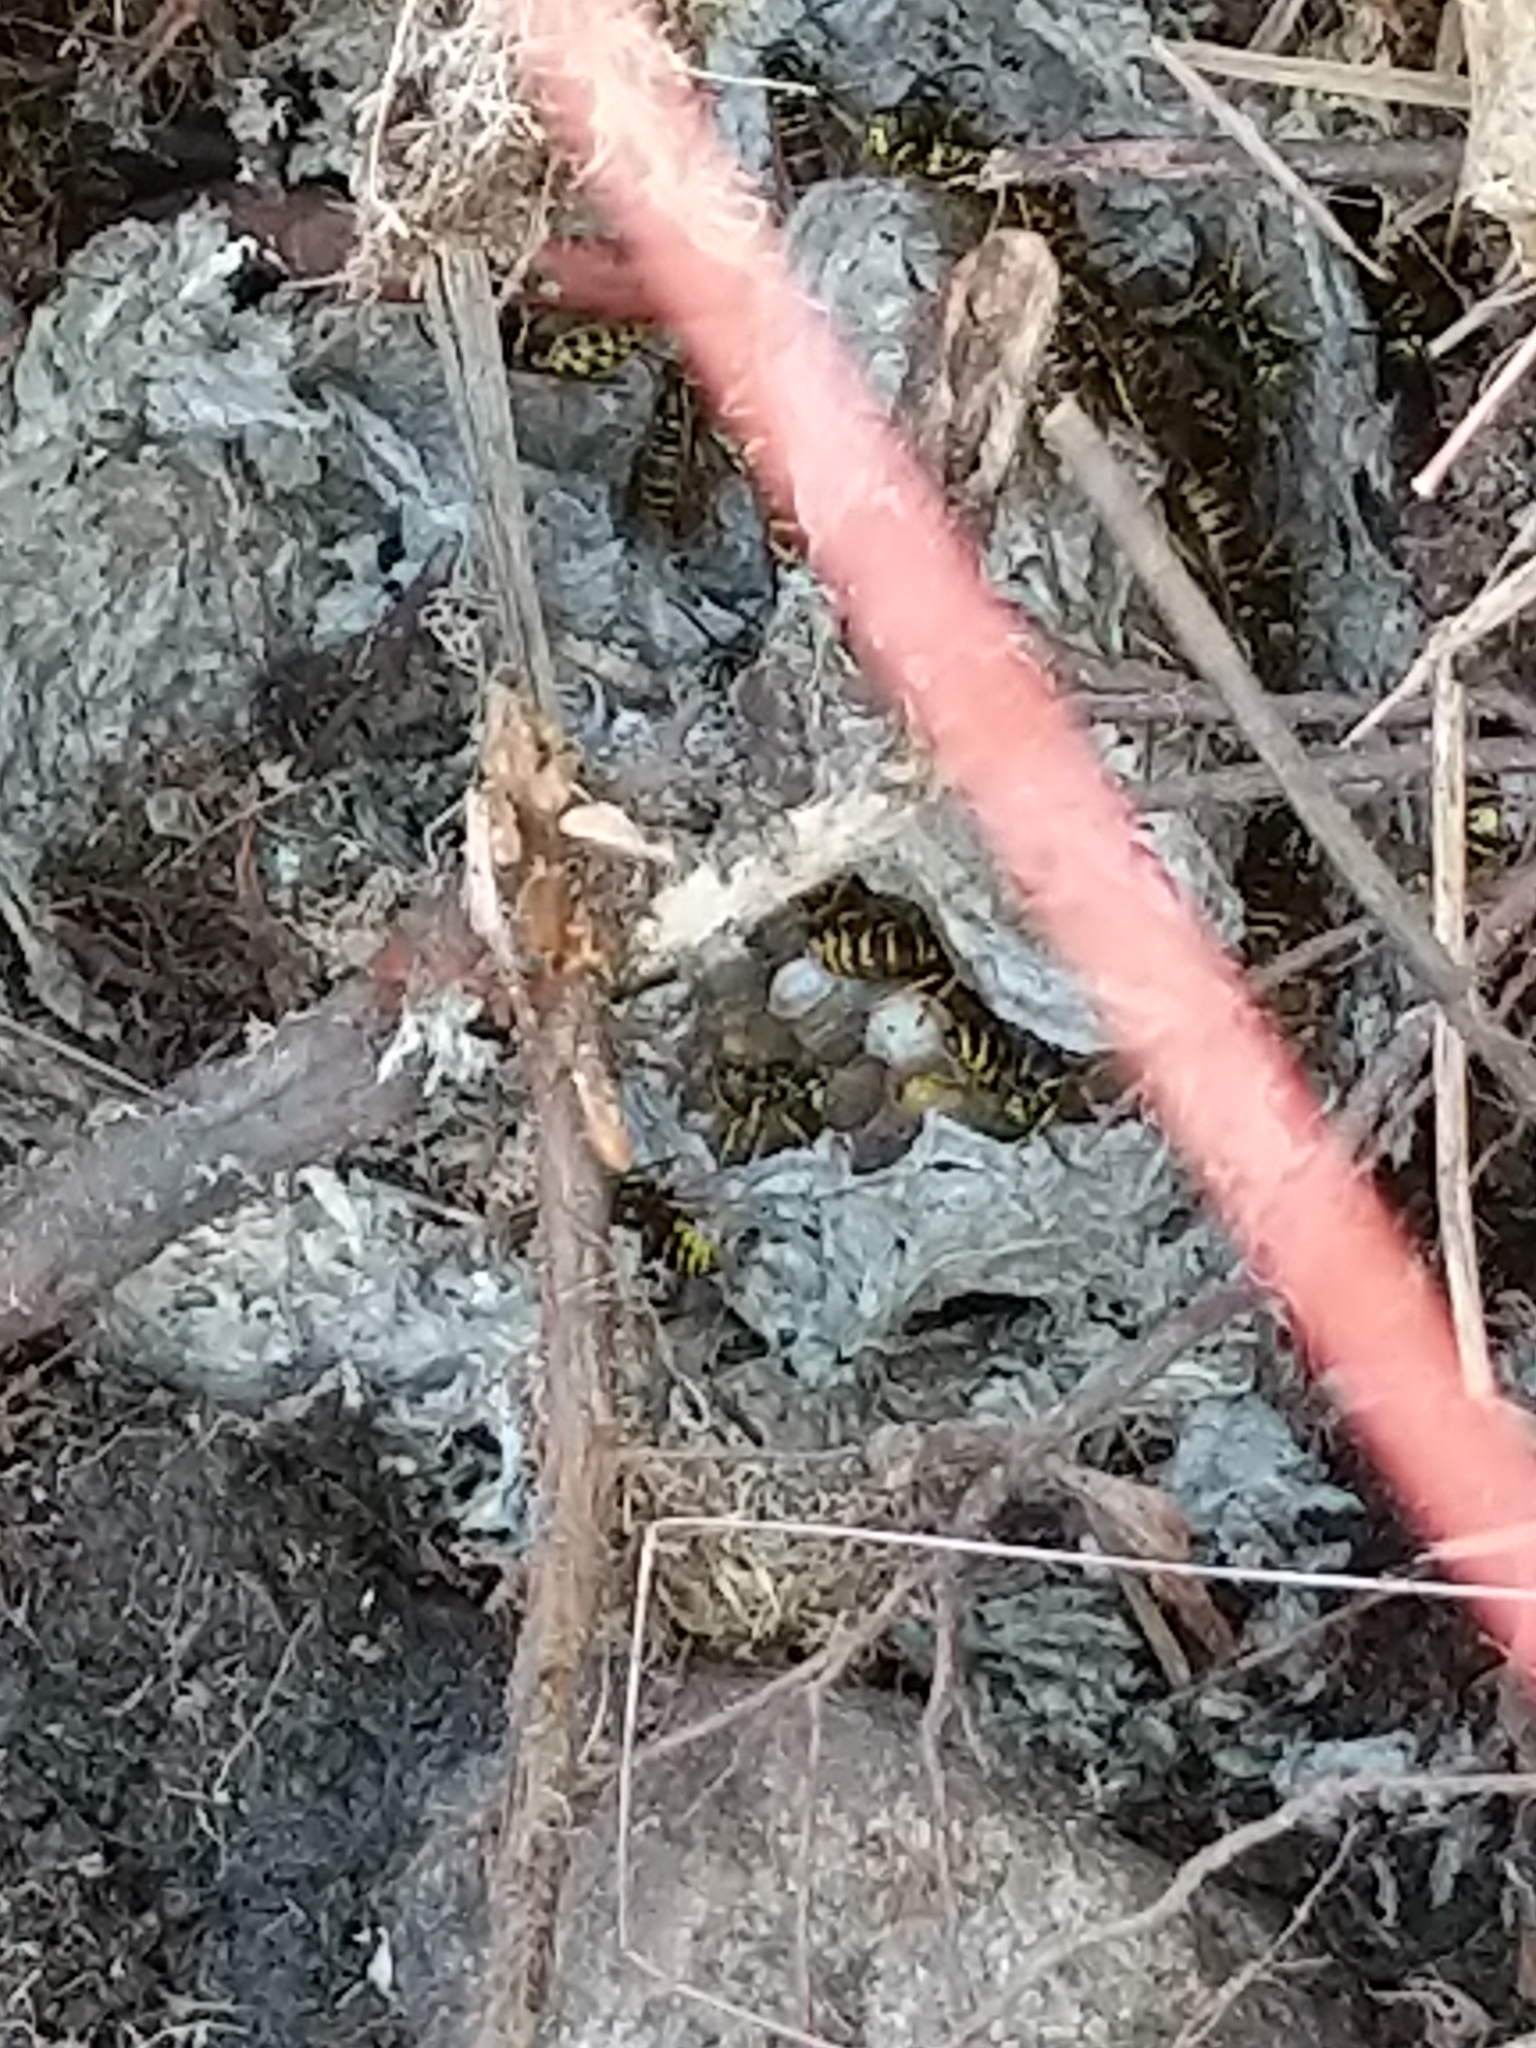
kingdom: Animalia
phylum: Arthropoda
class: Insecta
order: Hymenoptera
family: Vespidae
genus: Vespula
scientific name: Vespula squamosa
